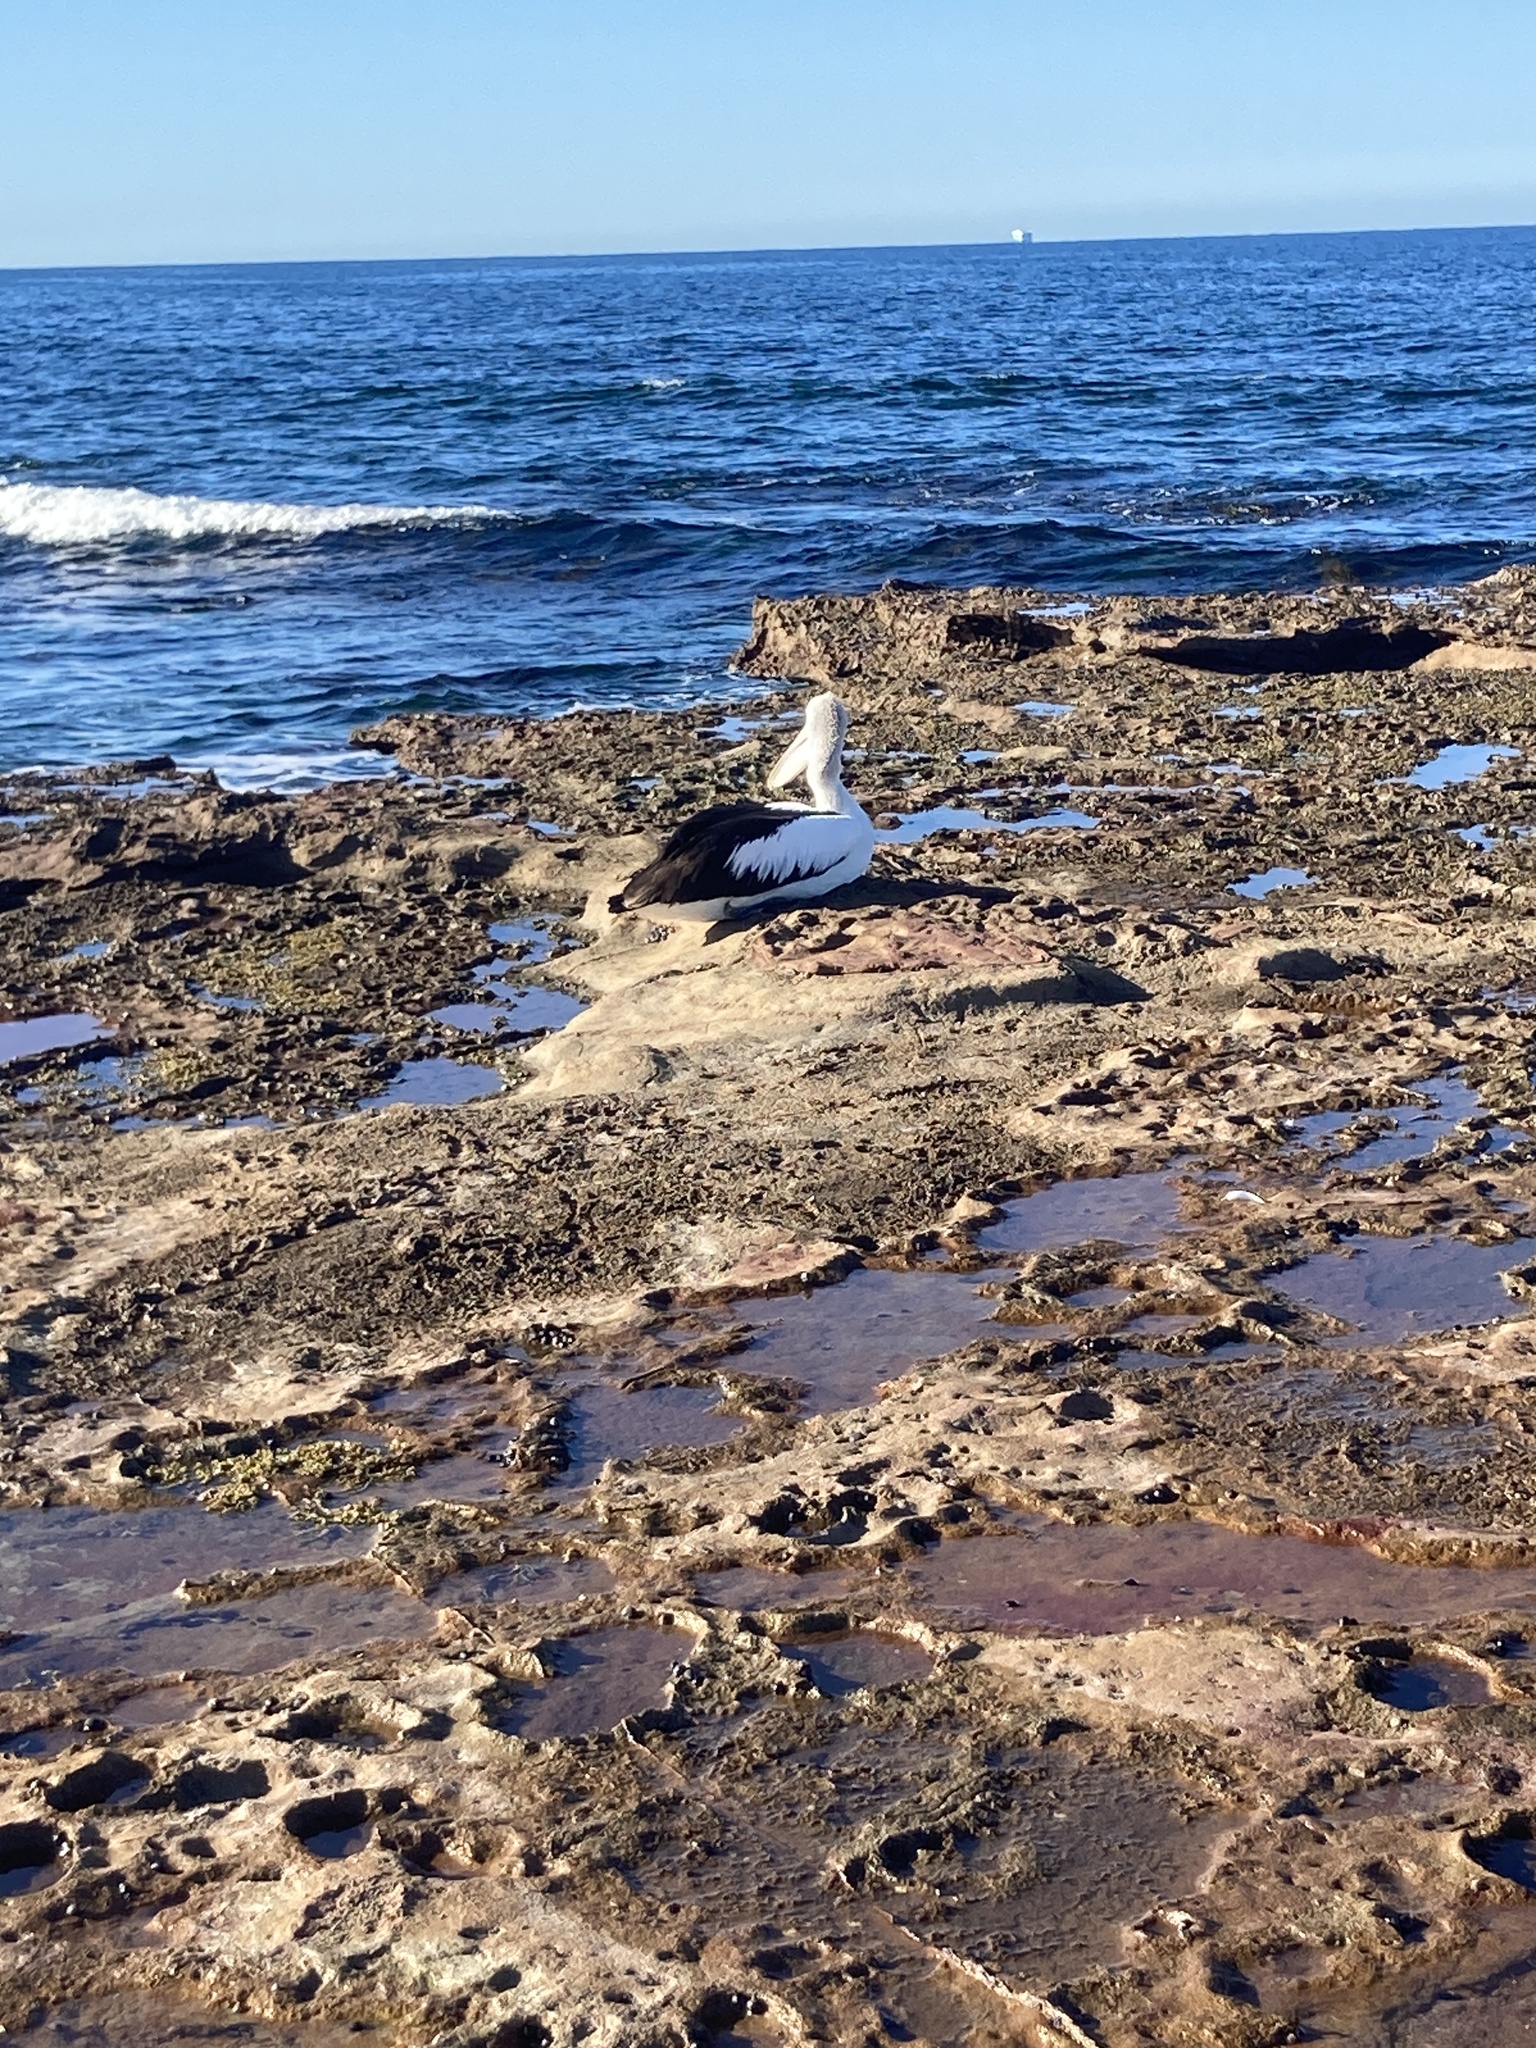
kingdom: Animalia
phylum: Chordata
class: Aves
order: Pelecaniformes
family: Pelecanidae
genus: Pelecanus
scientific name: Pelecanus conspicillatus
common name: Australian pelican
